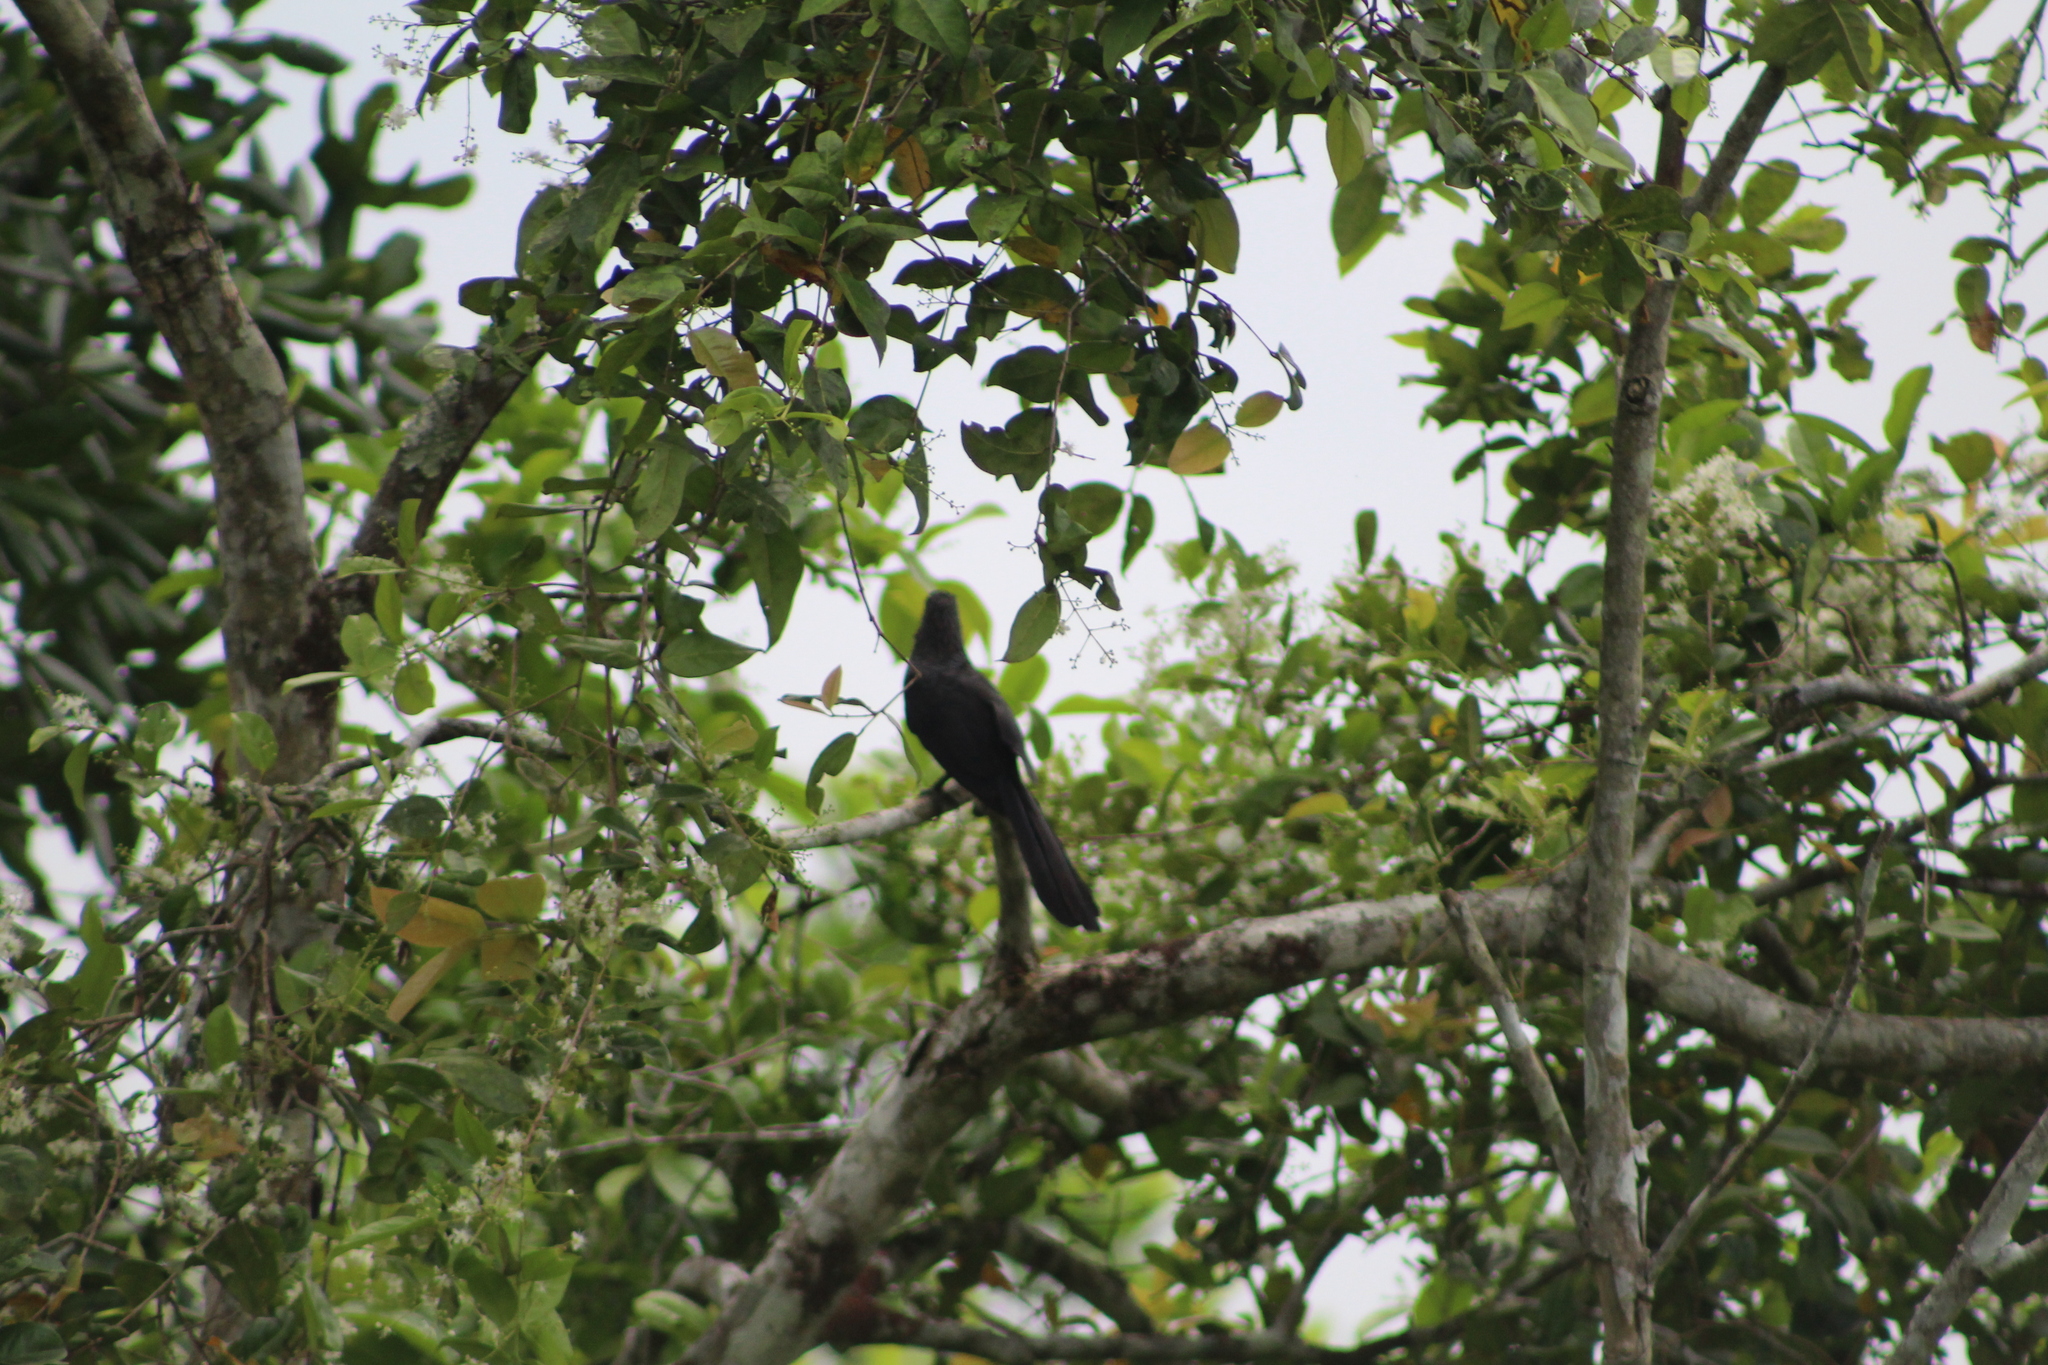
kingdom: Animalia
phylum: Chordata
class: Aves
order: Cuculiformes
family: Cuculidae
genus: Crotophaga
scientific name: Crotophaga ani
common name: Smooth-billed ani
